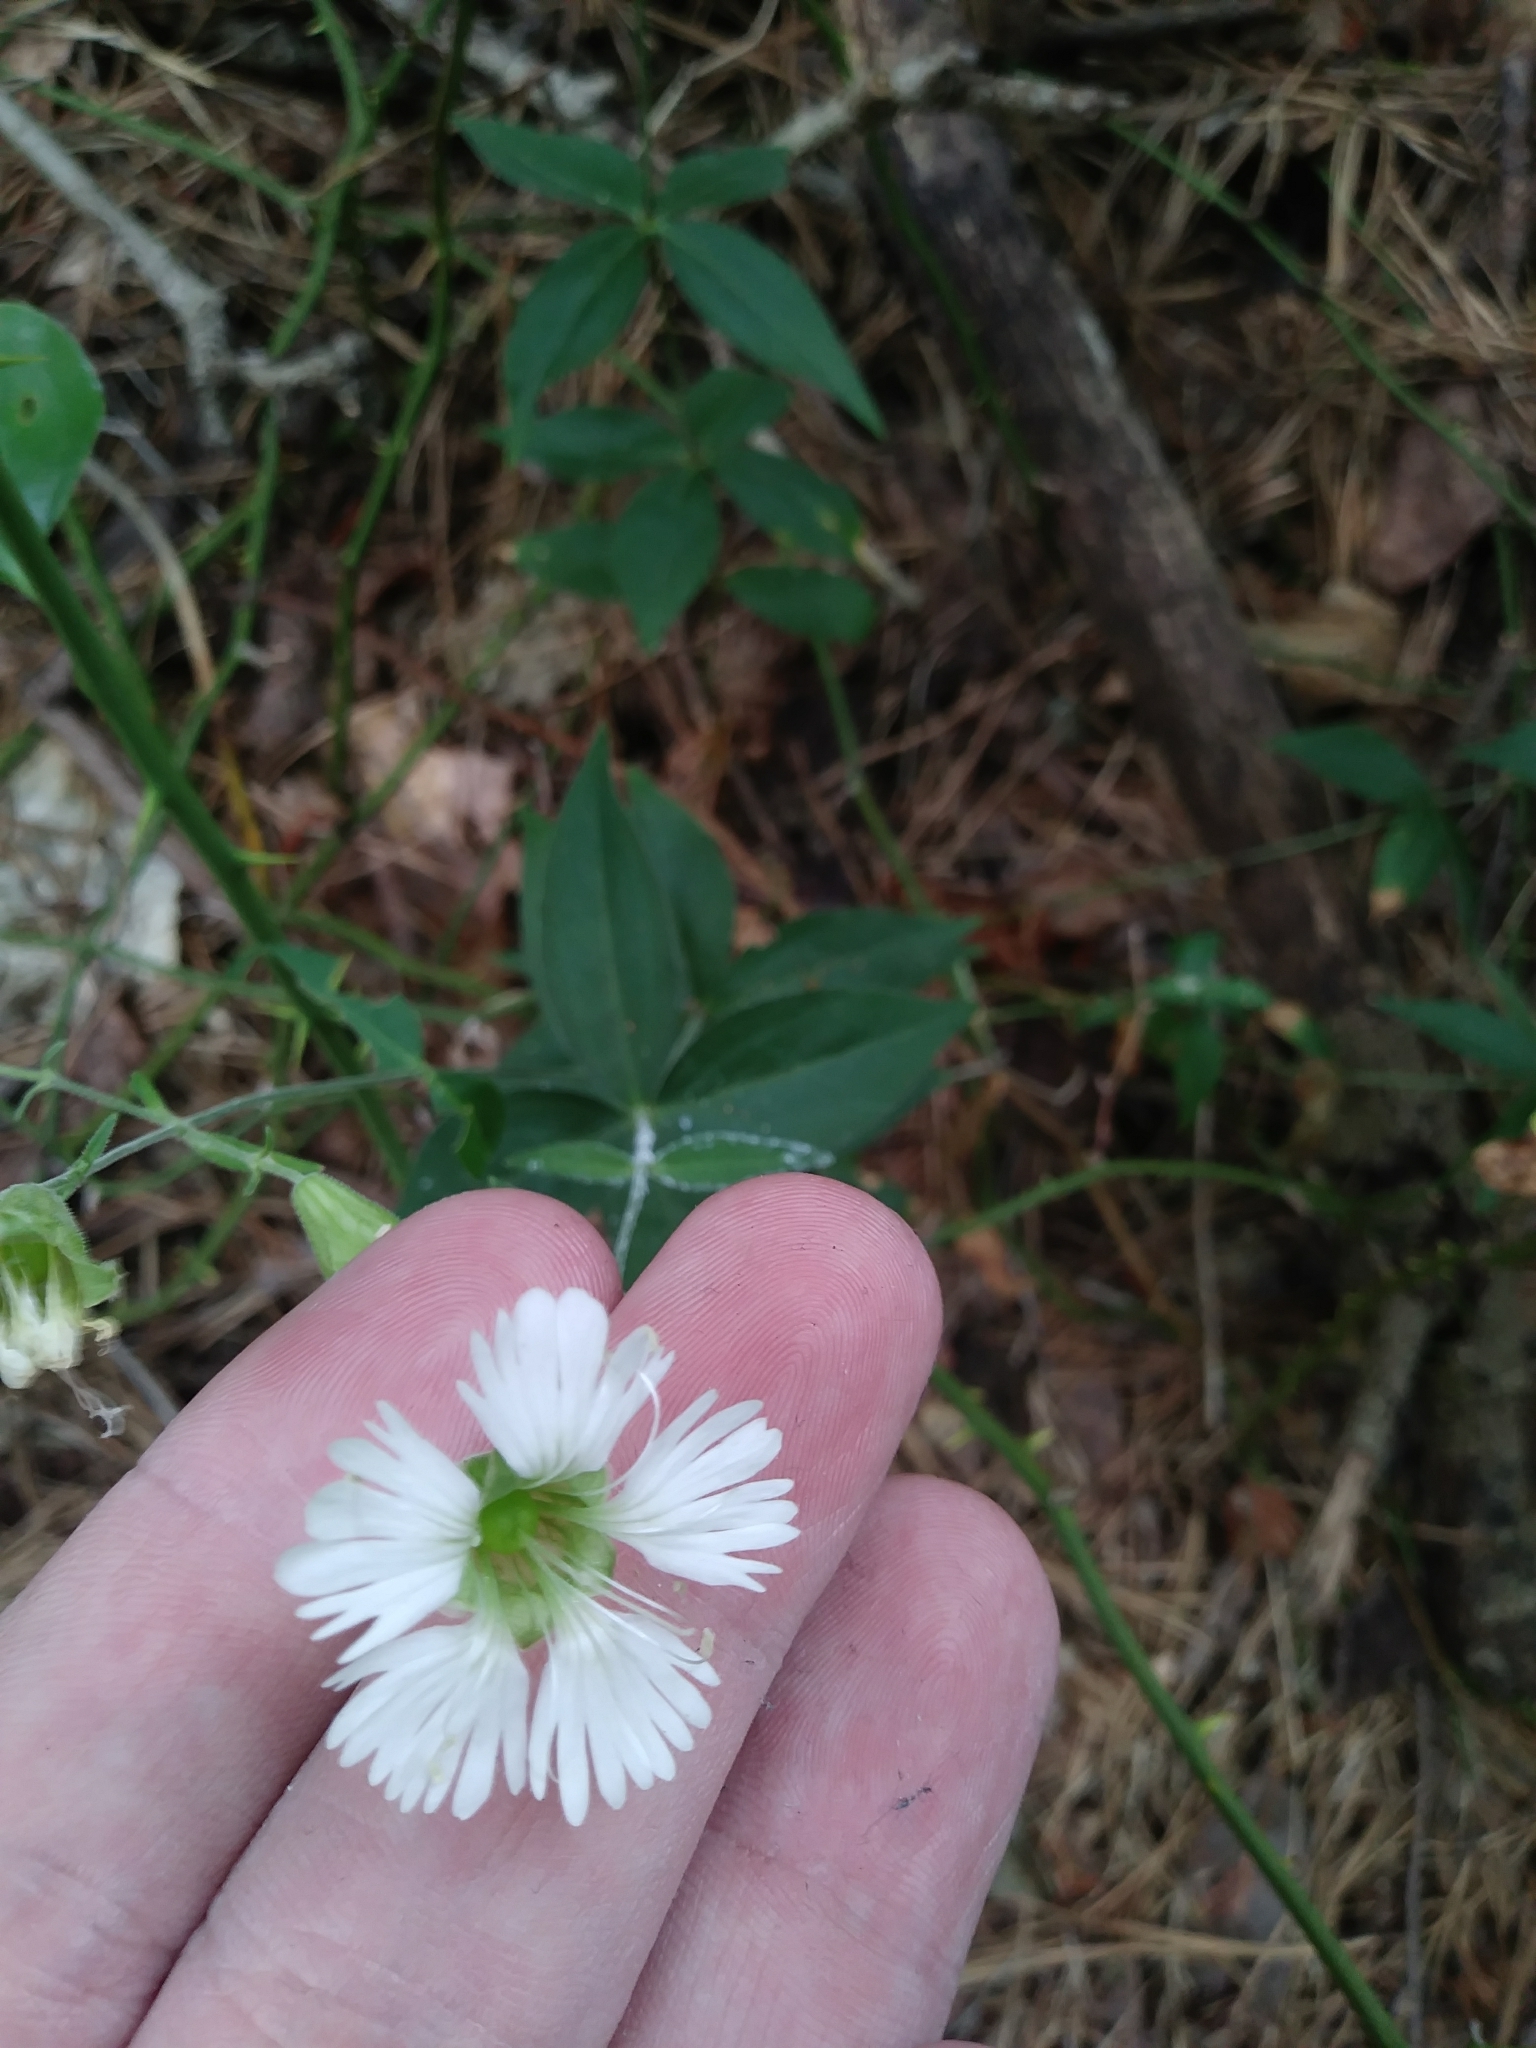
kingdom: Plantae
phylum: Tracheophyta
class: Magnoliopsida
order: Caryophyllales
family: Caryophyllaceae
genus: Silene
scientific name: Silene stellata
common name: Starry campion
